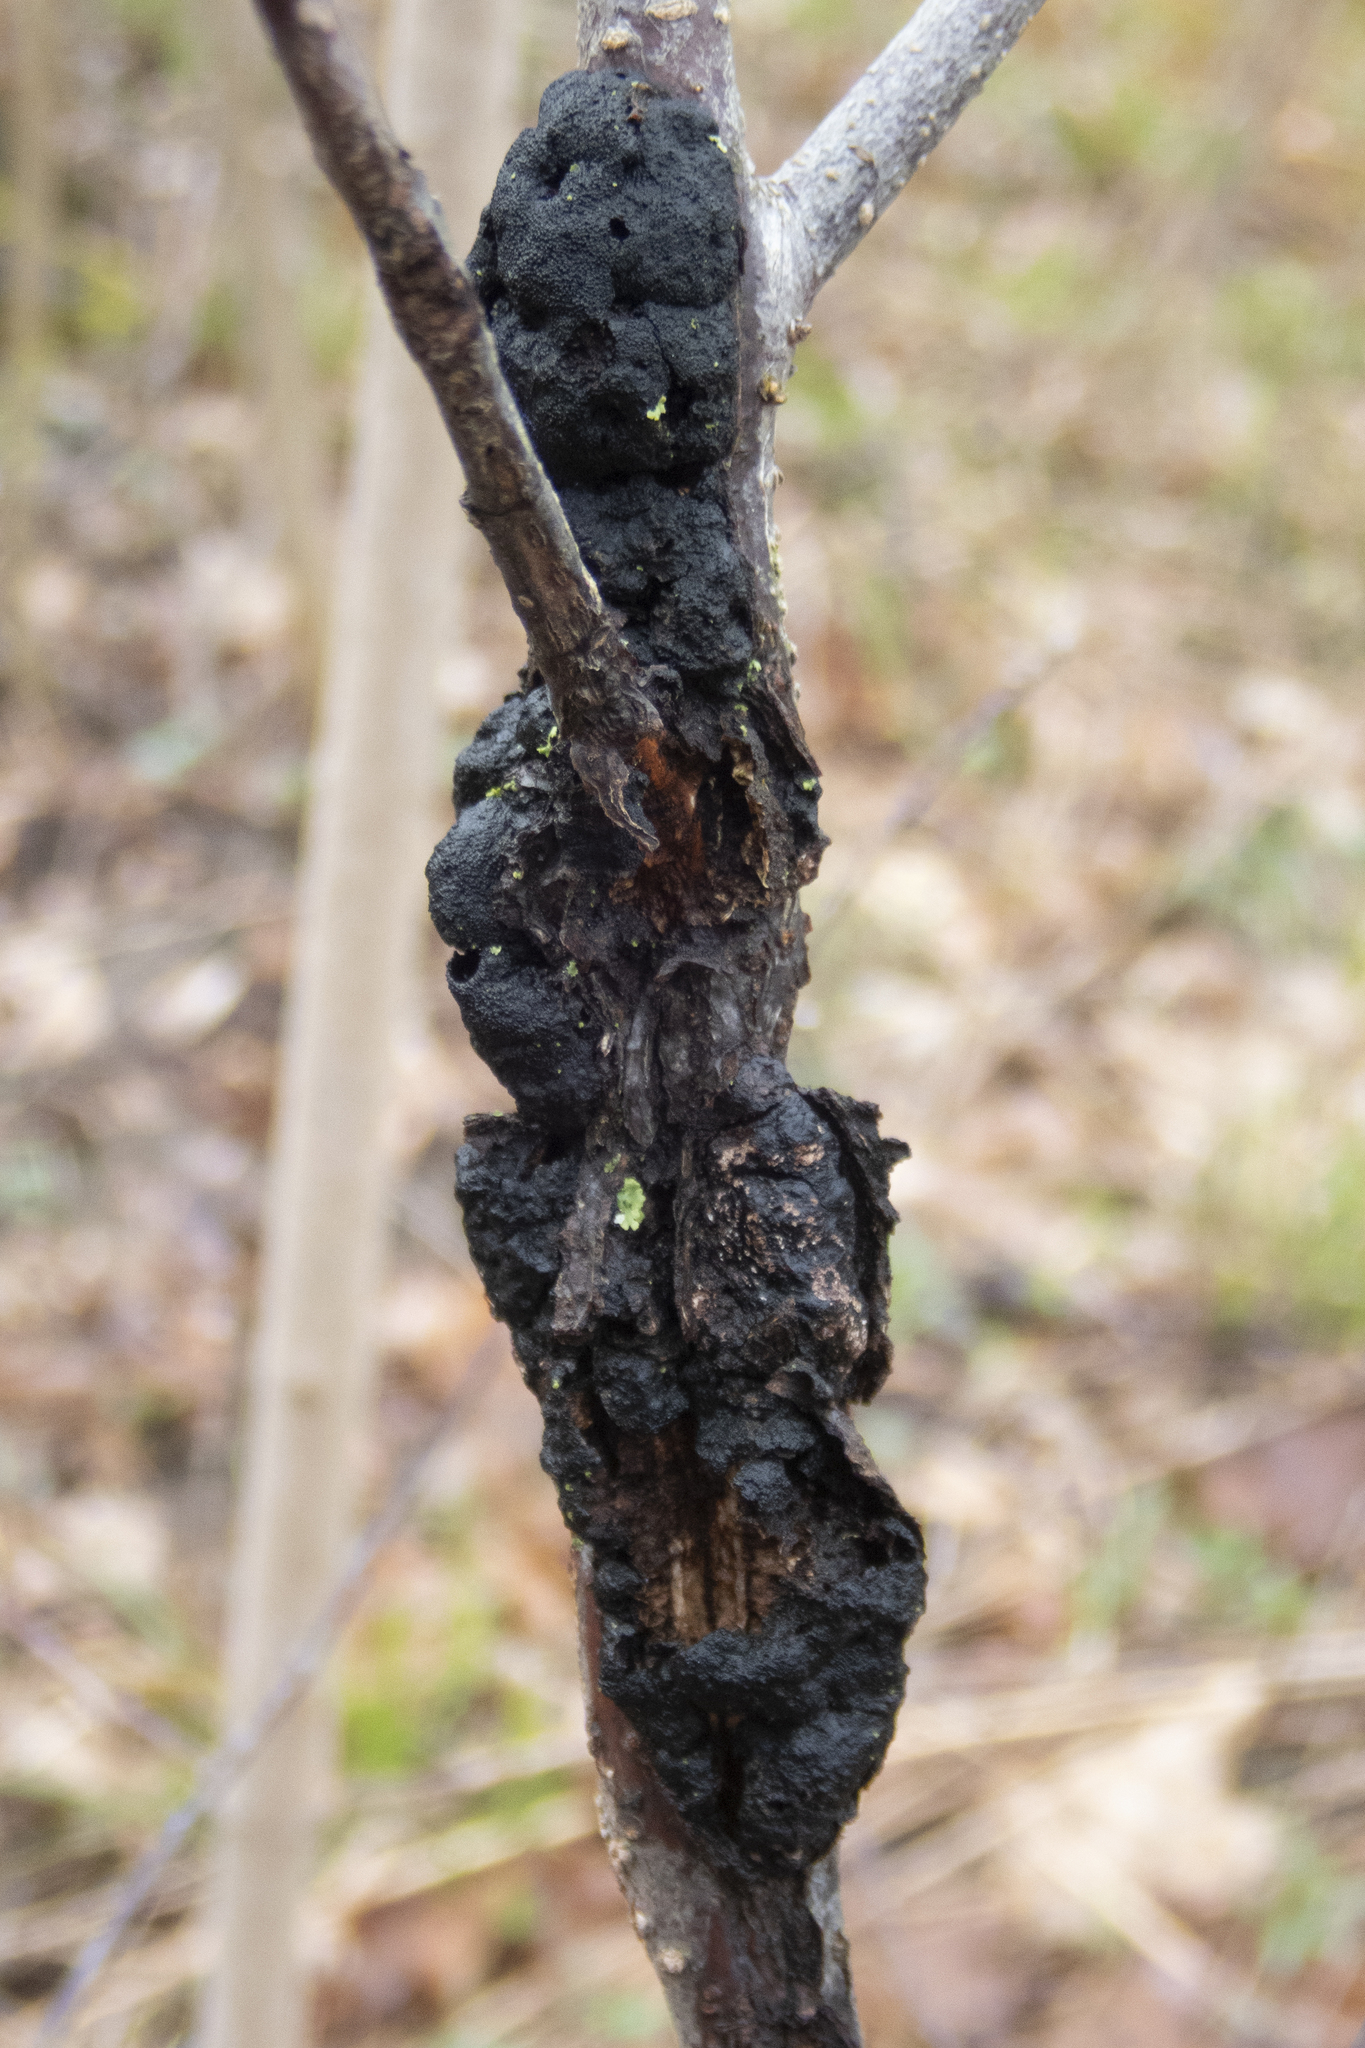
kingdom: Fungi
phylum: Ascomycota
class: Dothideomycetes
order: Venturiales
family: Venturiaceae
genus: Apiosporina
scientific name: Apiosporina morbosa
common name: Black knot
